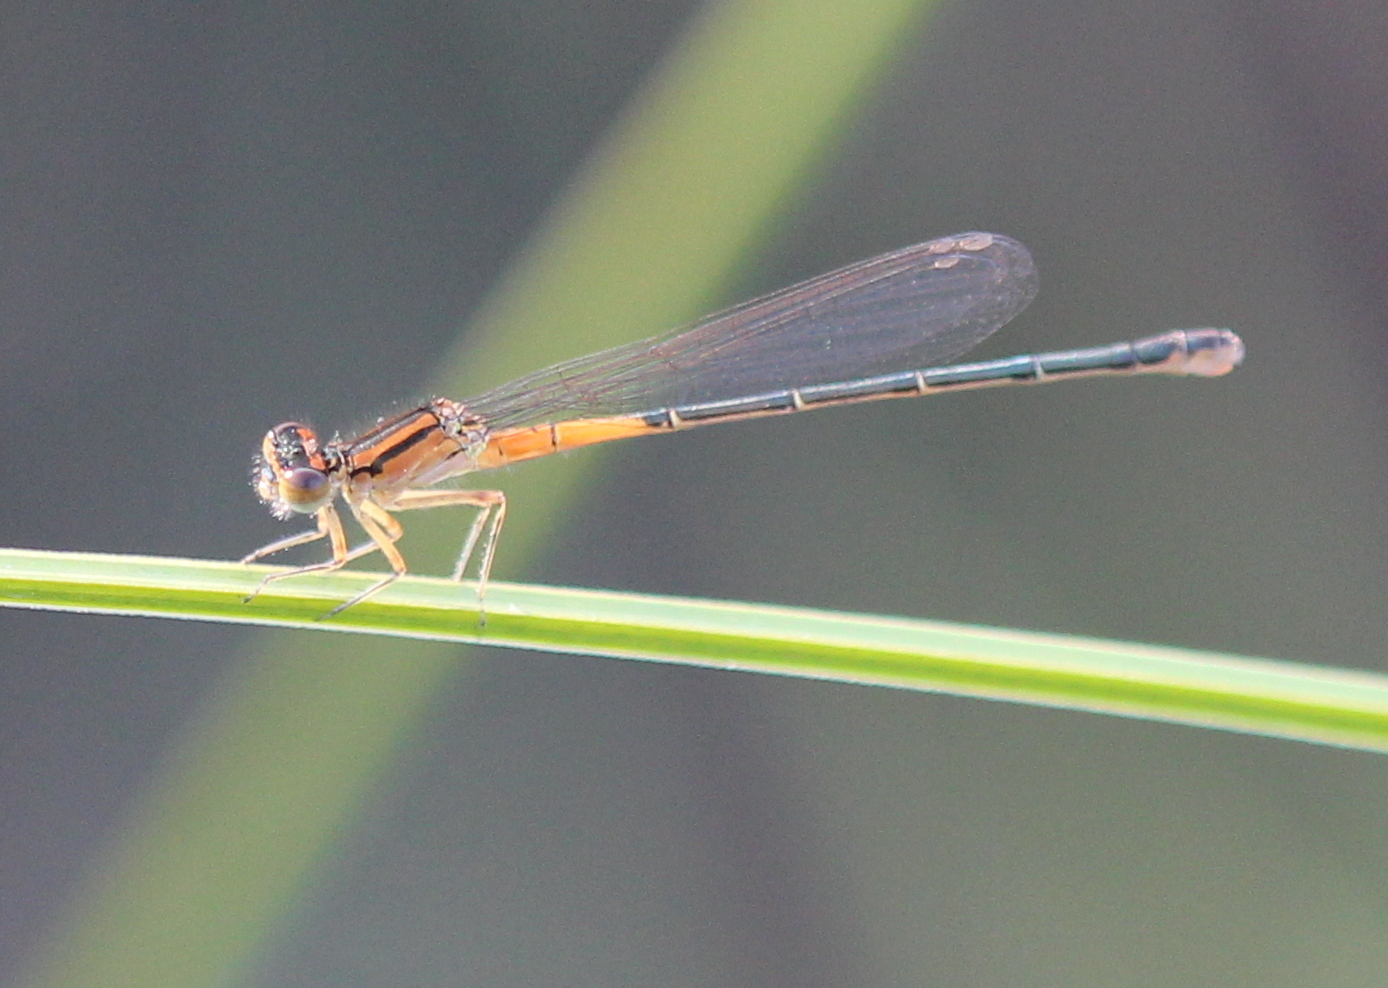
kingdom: Animalia
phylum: Arthropoda
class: Insecta
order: Odonata
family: Coenagrionidae
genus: Ischnura
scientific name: Ischnura verticalis
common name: Eastern forktail
